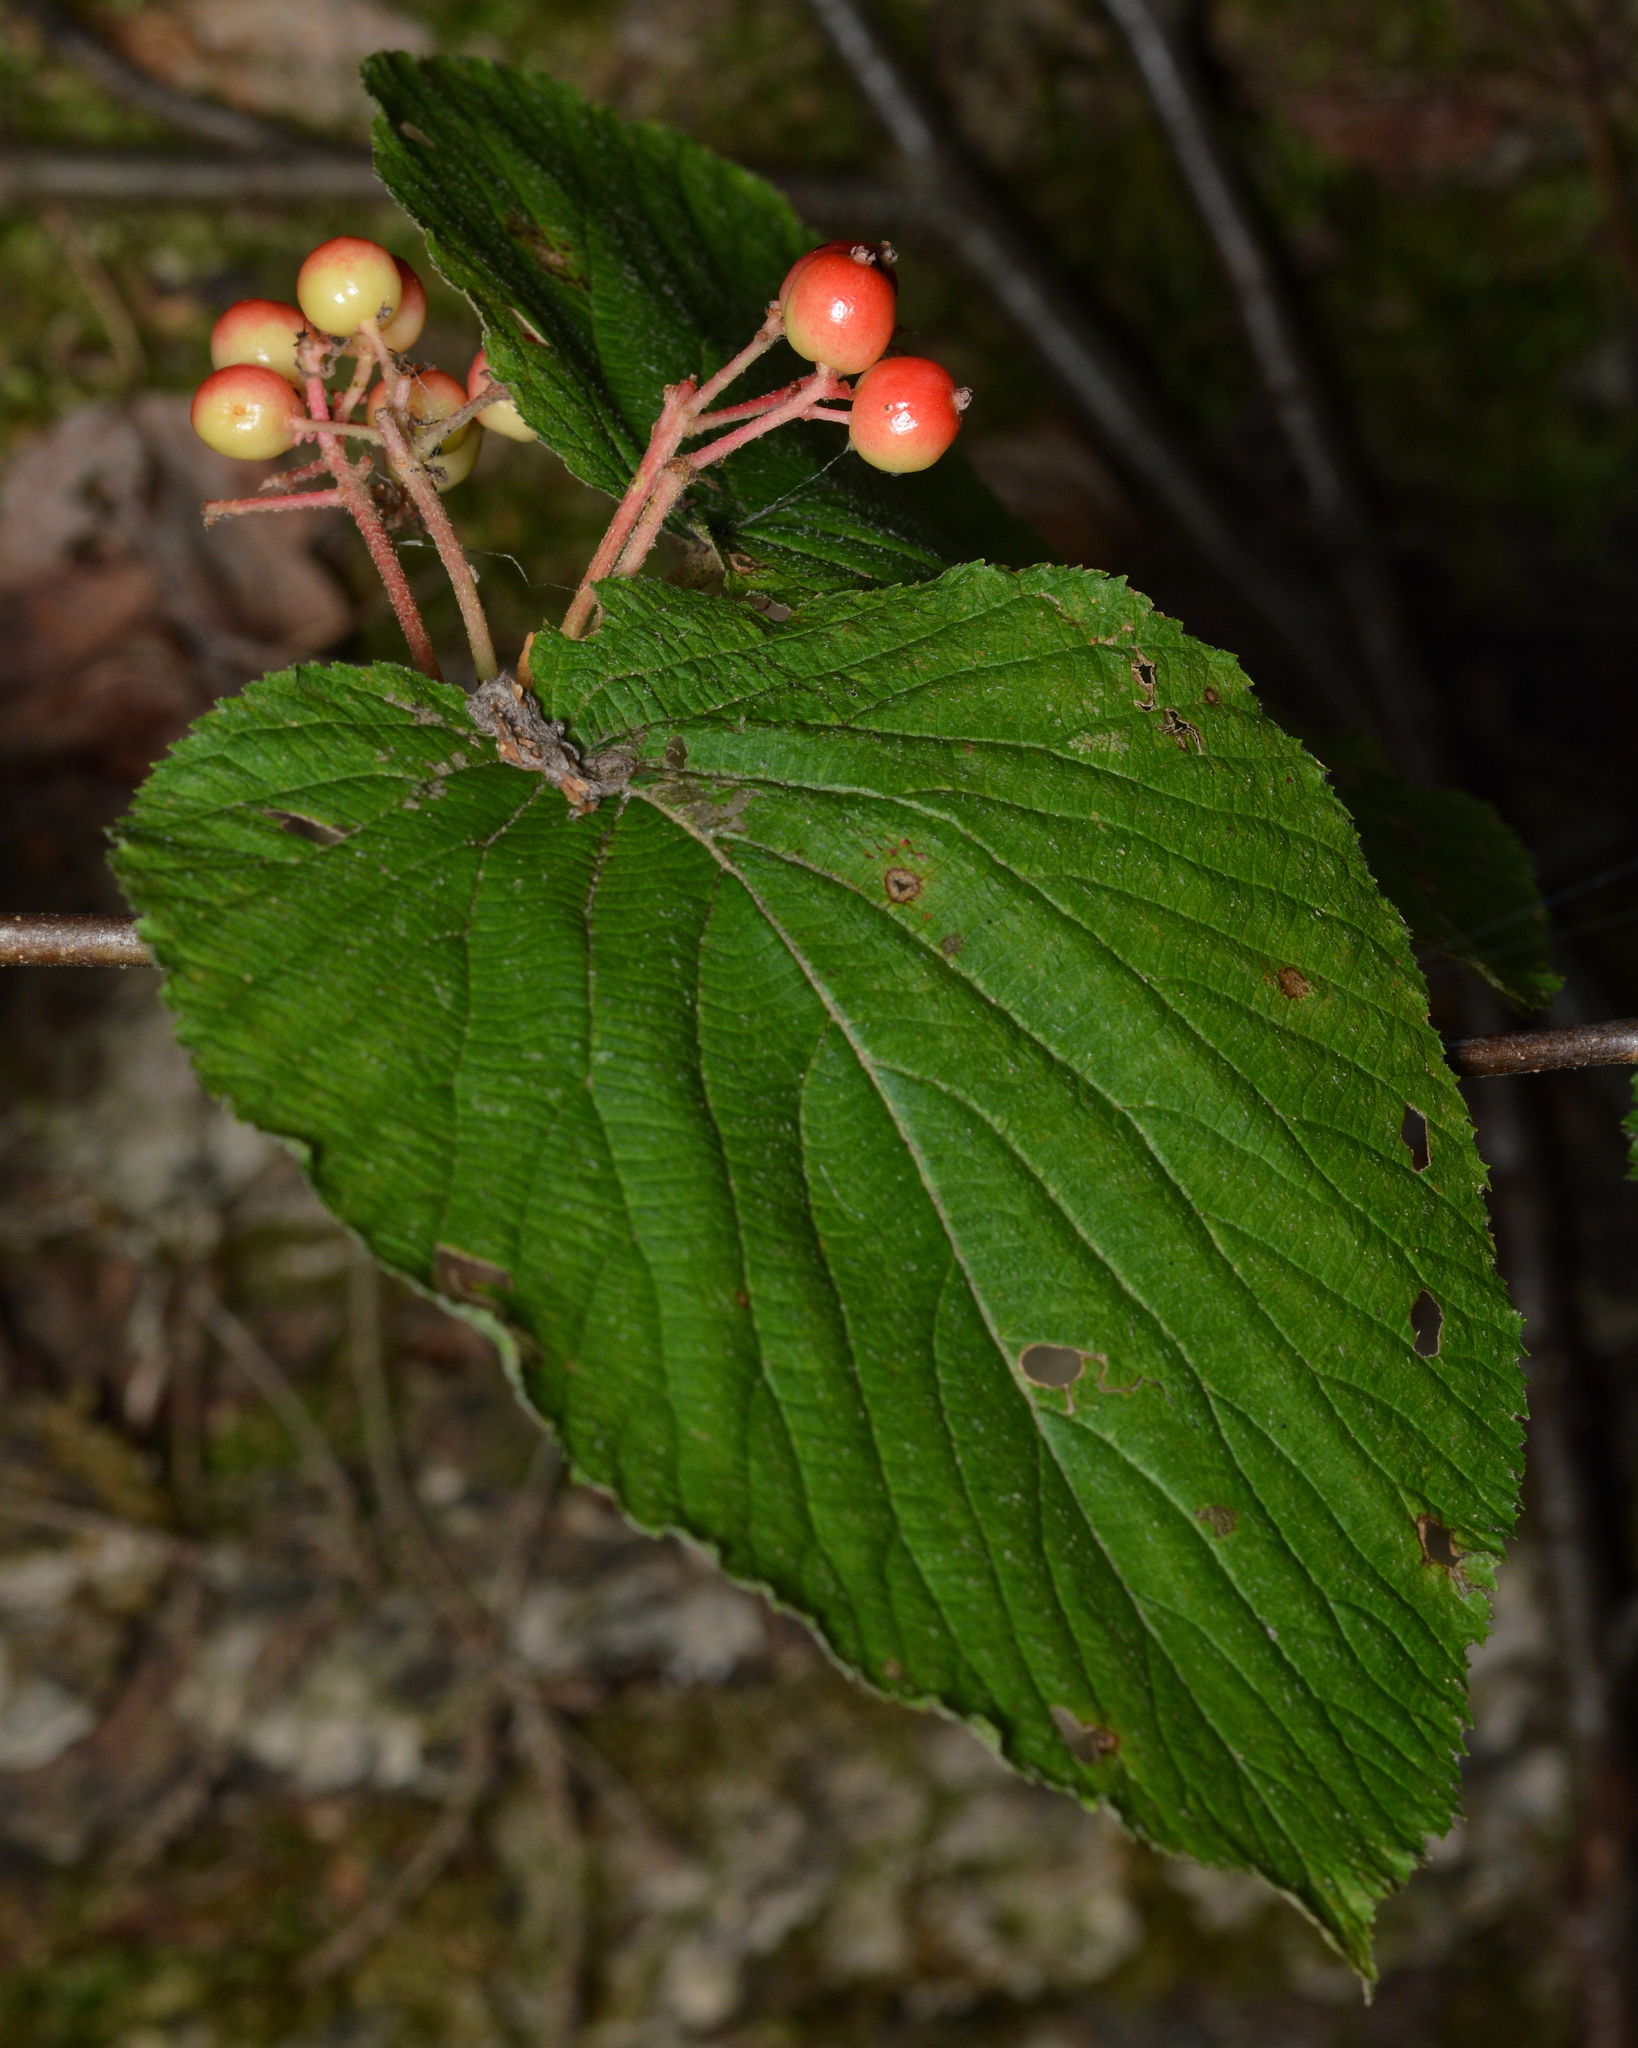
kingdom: Plantae
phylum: Tracheophyta
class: Magnoliopsida
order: Dipsacales
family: Viburnaceae
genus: Viburnum
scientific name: Viburnum lantanoides
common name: Hobblebush
